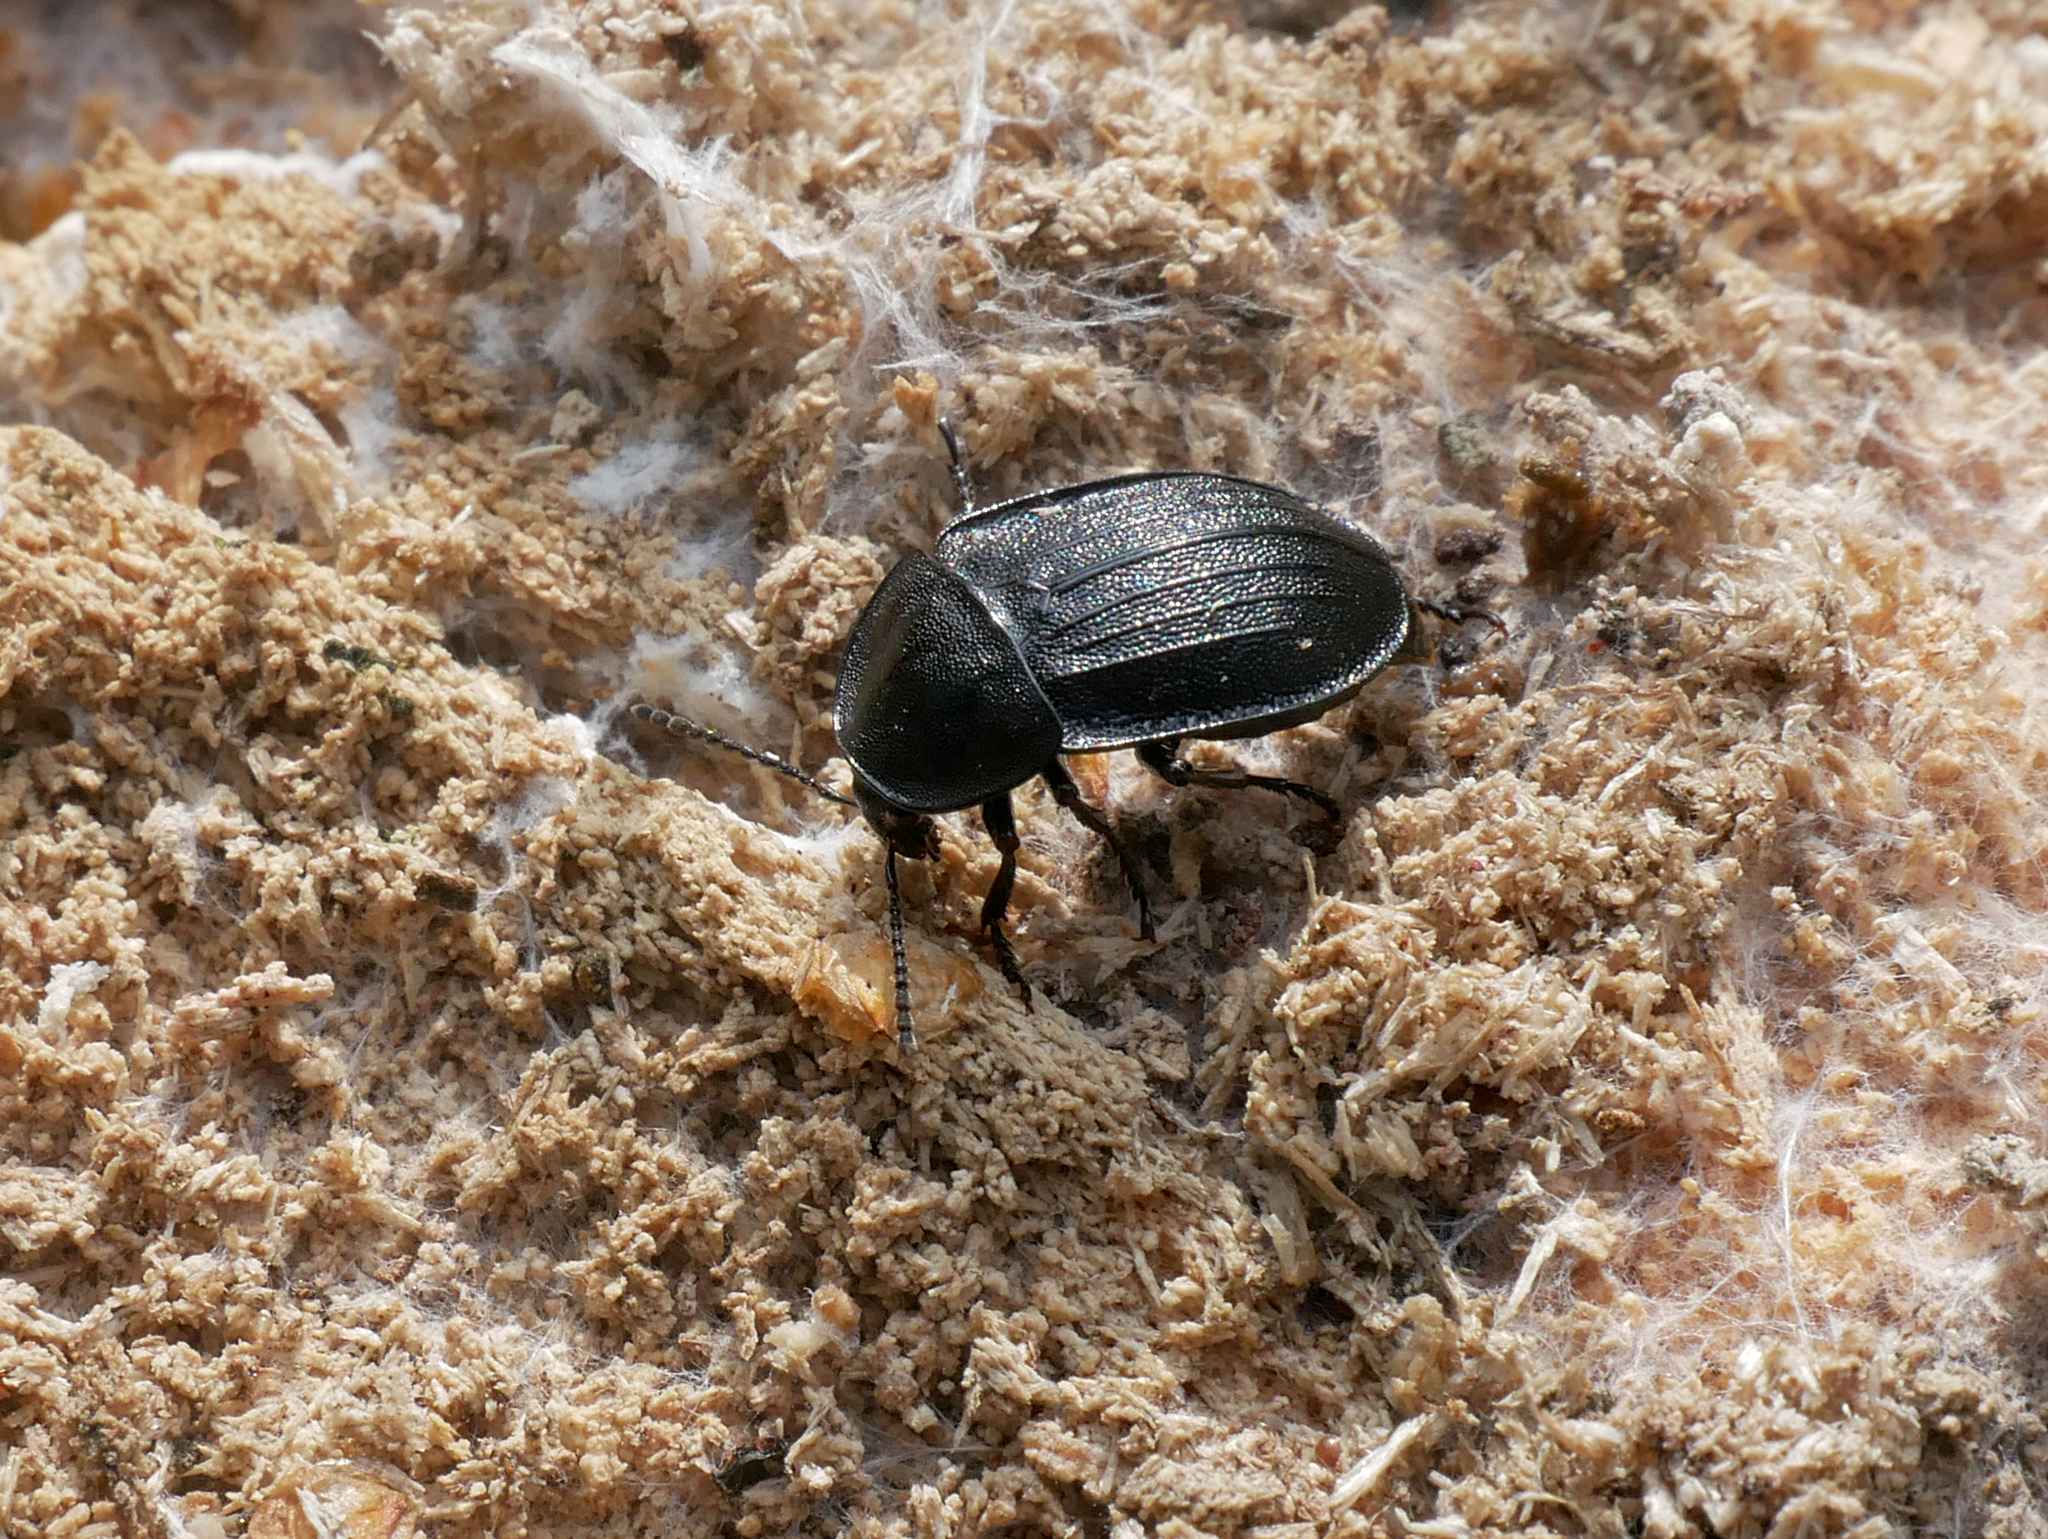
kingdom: Animalia
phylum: Arthropoda
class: Insecta
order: Coleoptera
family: Staphylinidae
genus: Silpha
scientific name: Silpha atrata
